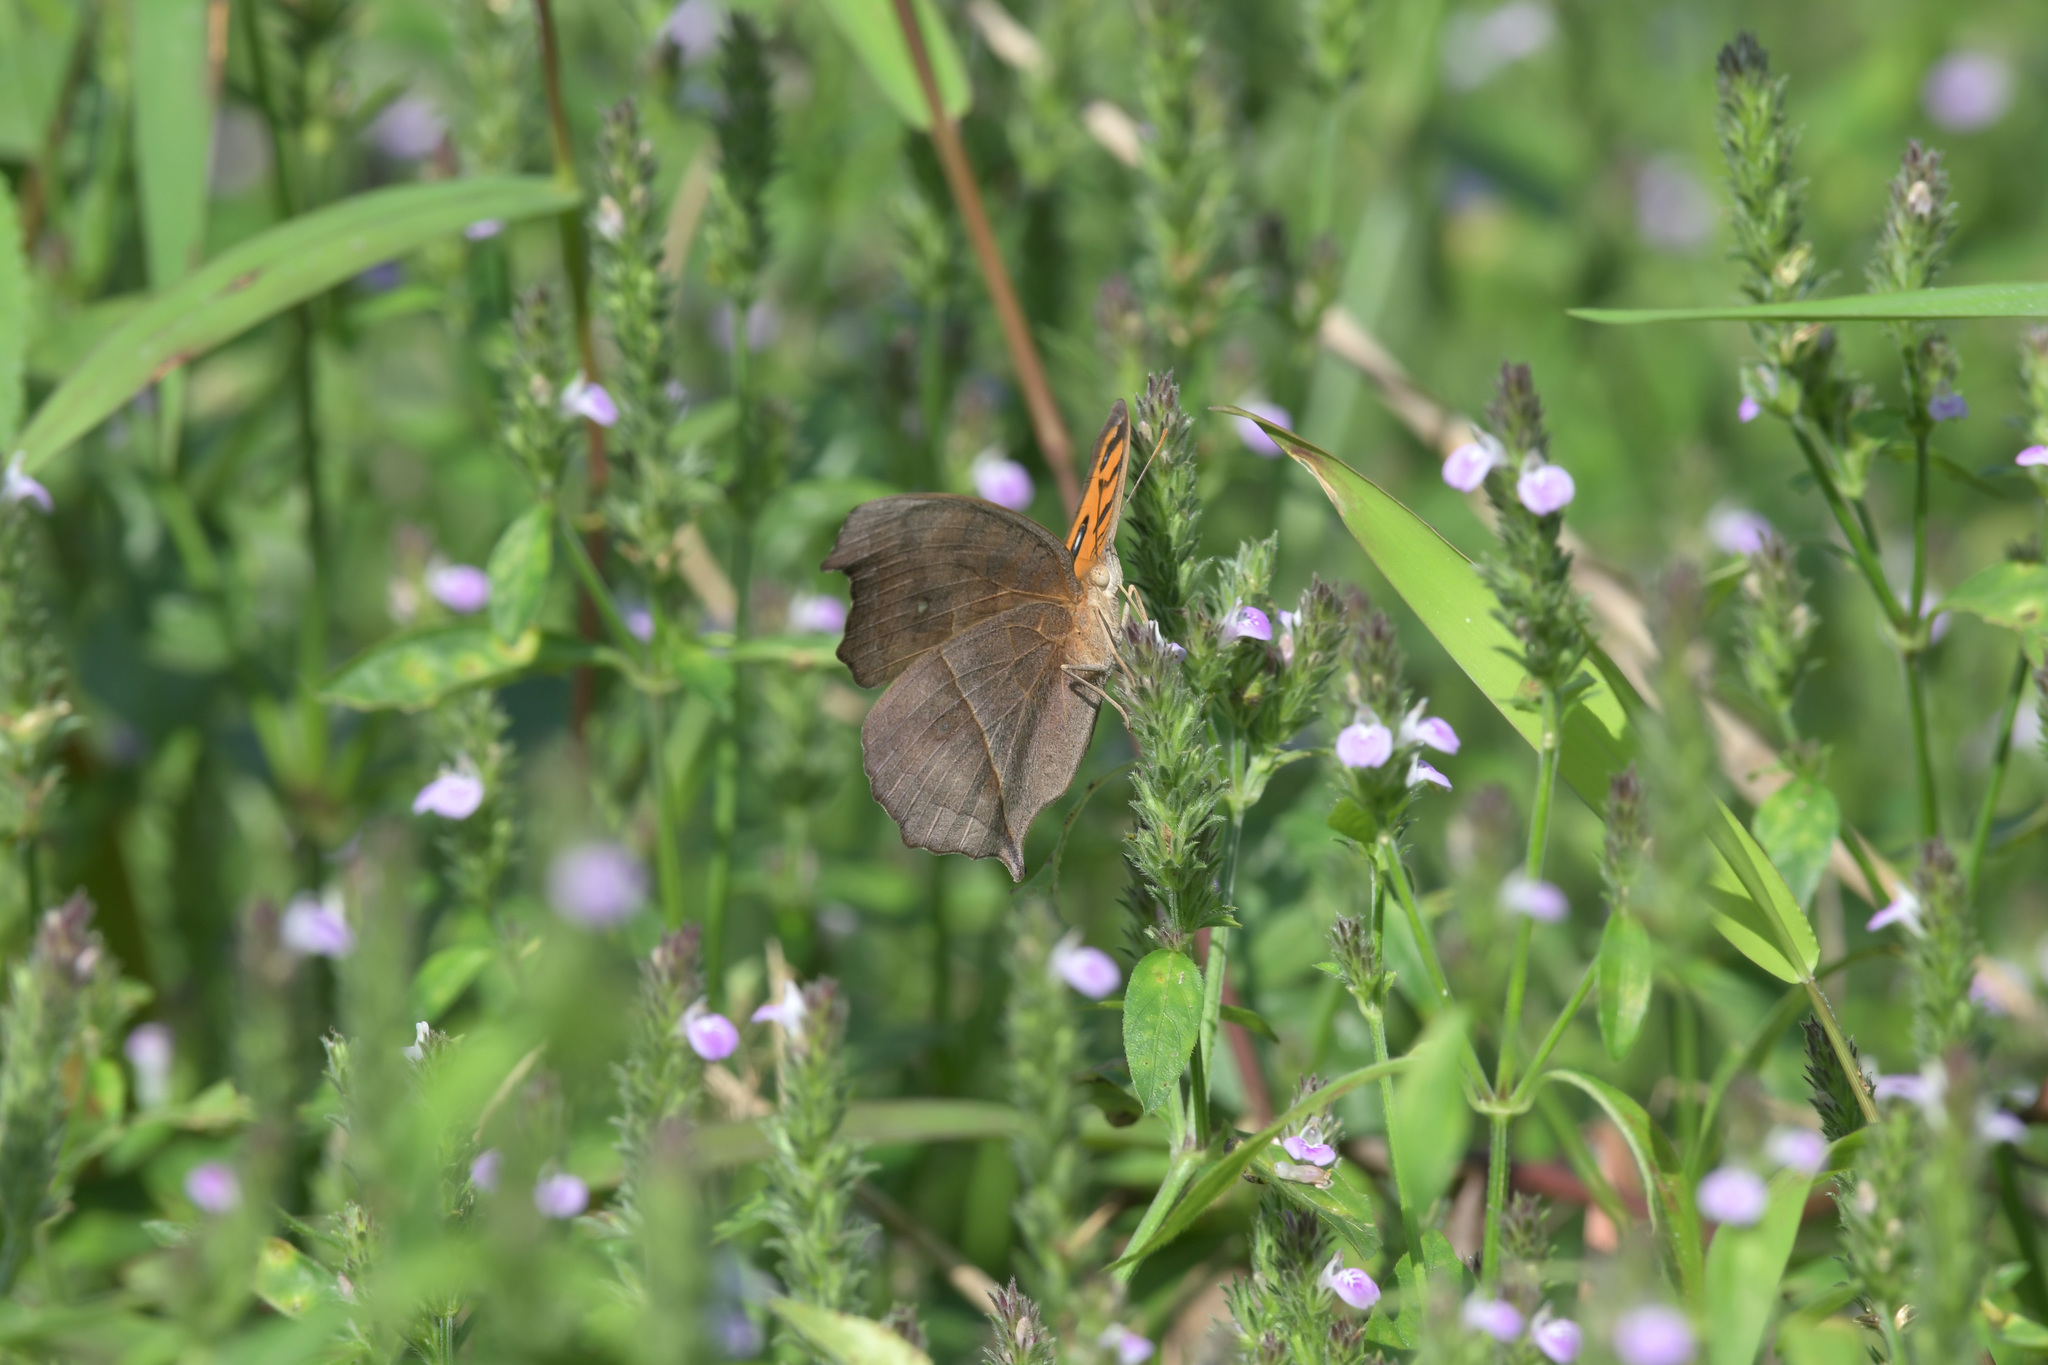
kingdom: Animalia
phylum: Arthropoda
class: Insecta
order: Lepidoptera
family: Nymphalidae
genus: Junonia
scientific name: Junonia almana
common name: Peacock pansy
